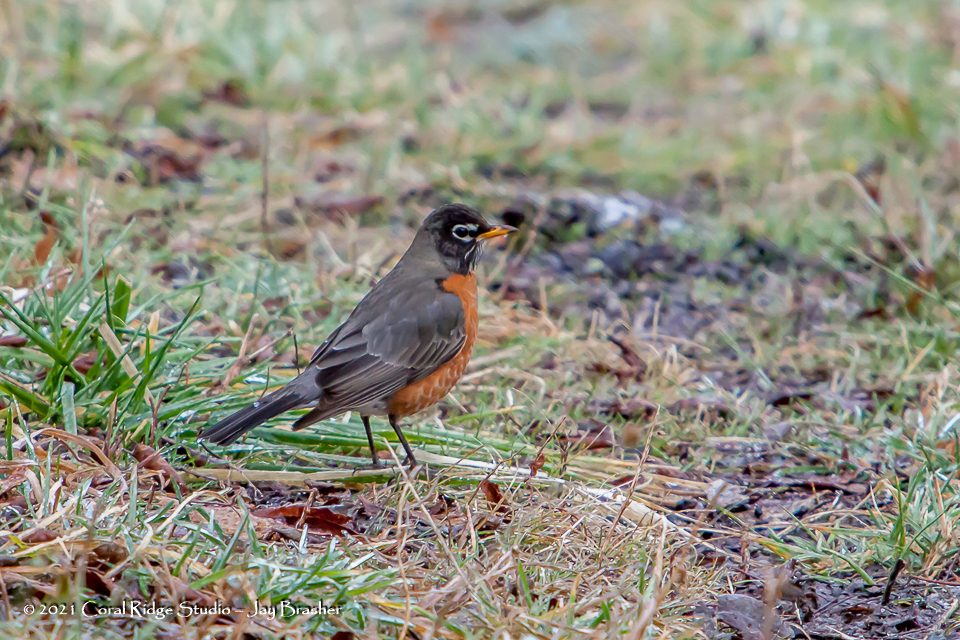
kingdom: Animalia
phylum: Chordata
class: Aves
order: Passeriformes
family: Turdidae
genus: Turdus
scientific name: Turdus migratorius
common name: American robin
